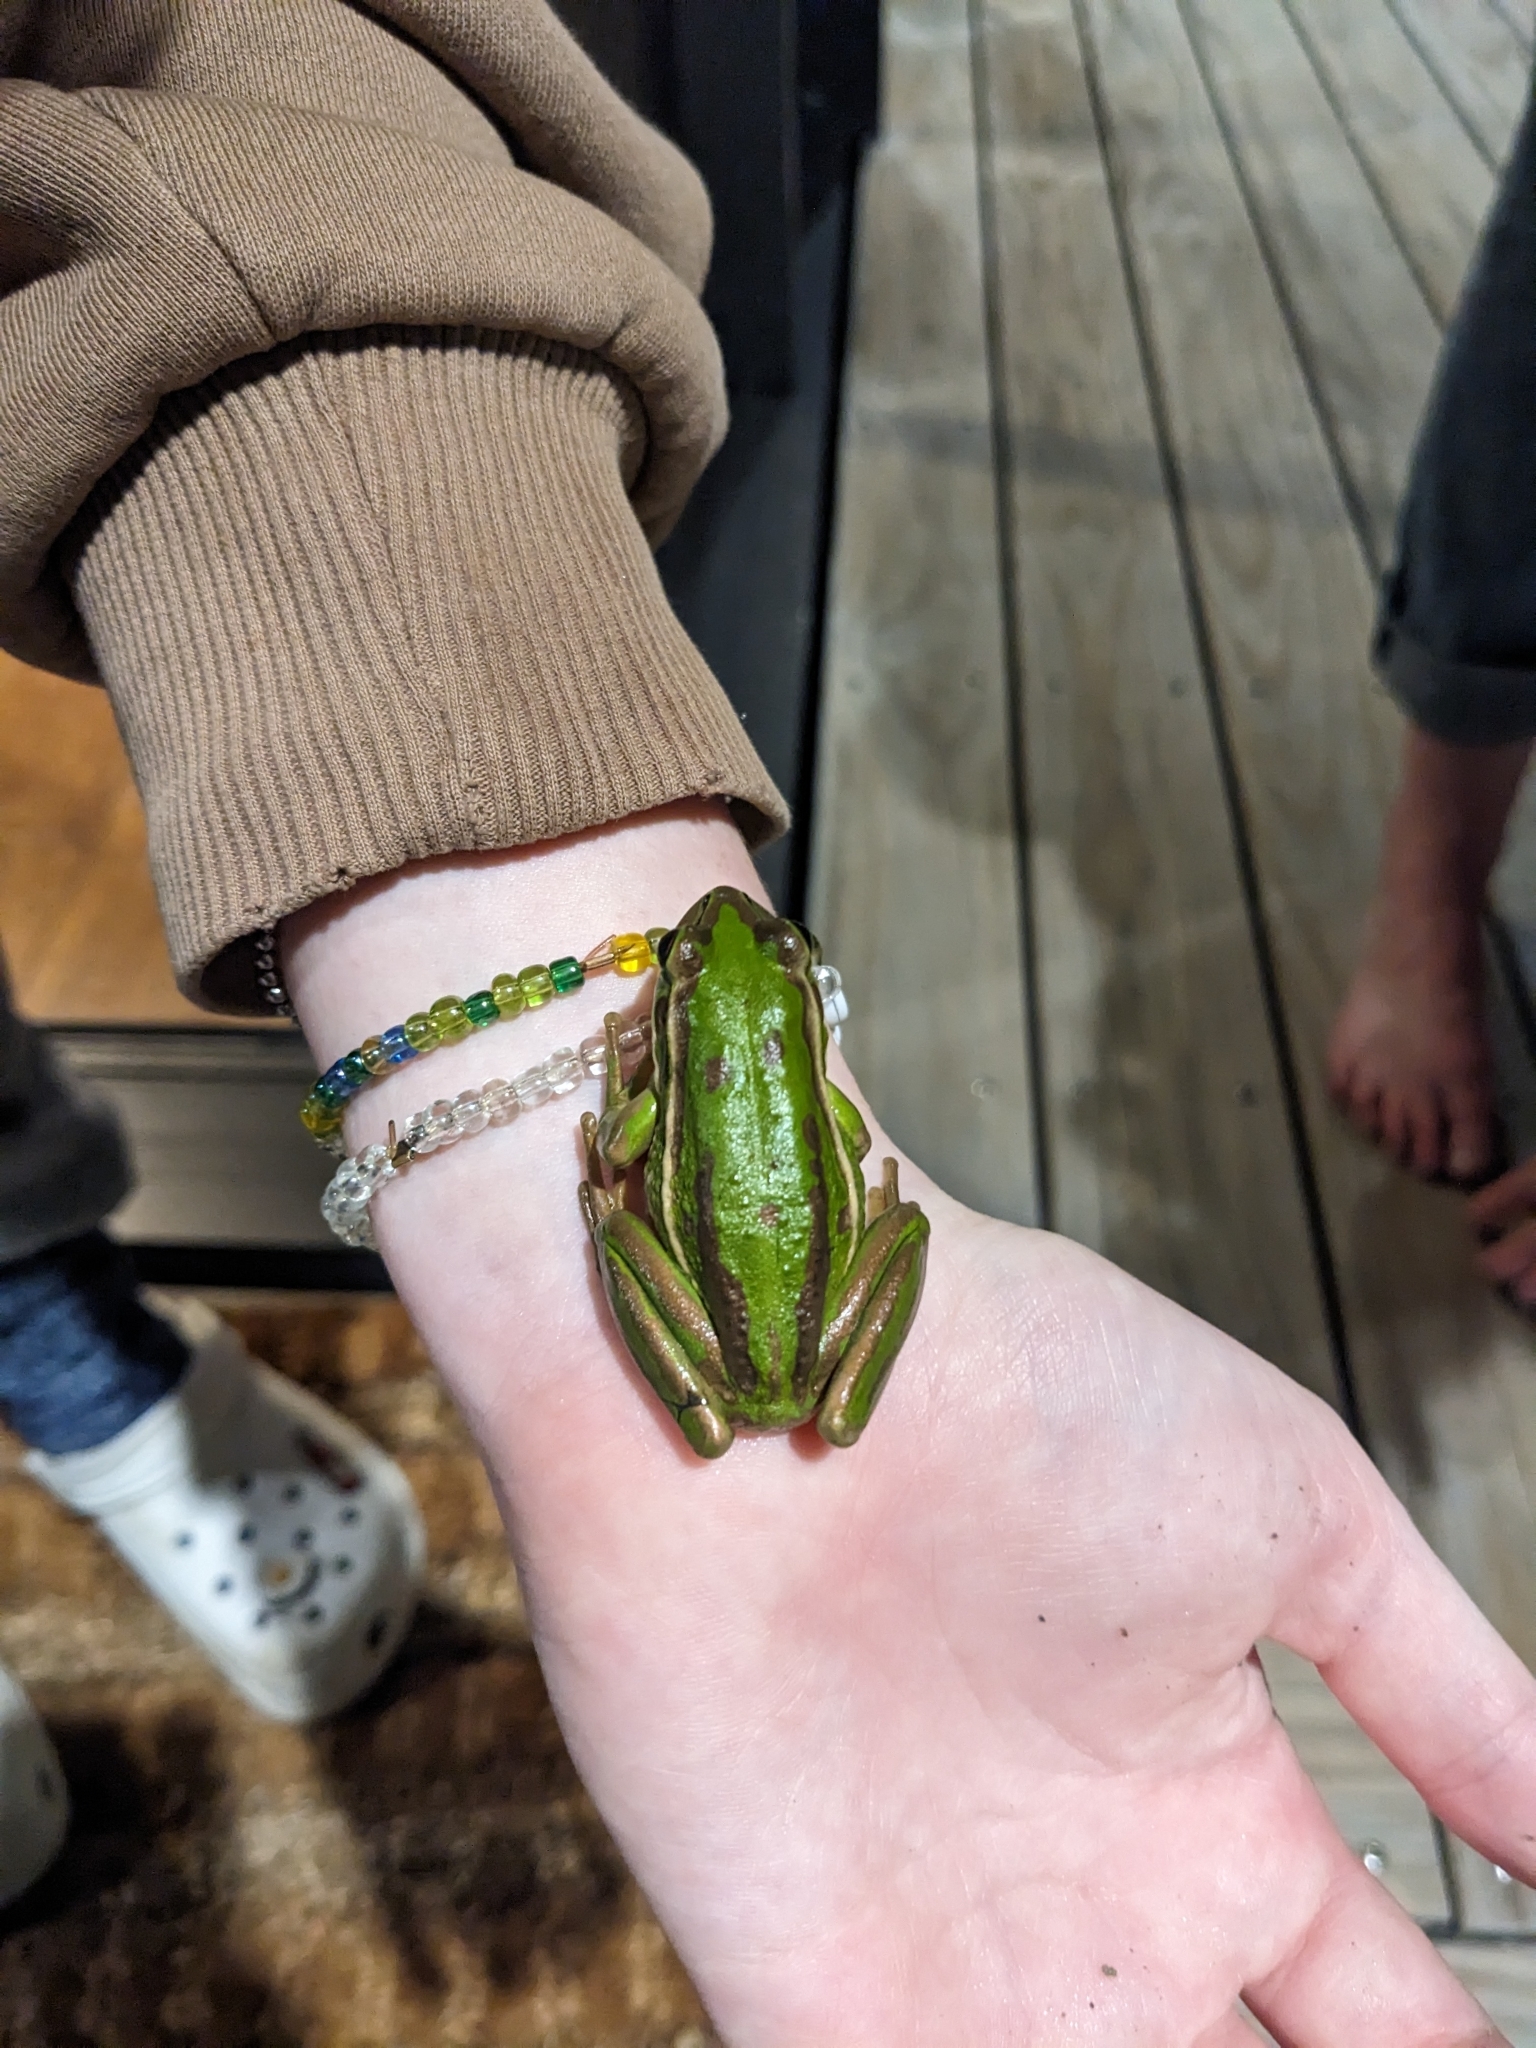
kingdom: Animalia
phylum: Chordata
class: Amphibia
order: Anura
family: Pelodryadidae
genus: Ranoidea
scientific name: Ranoidea aurea
